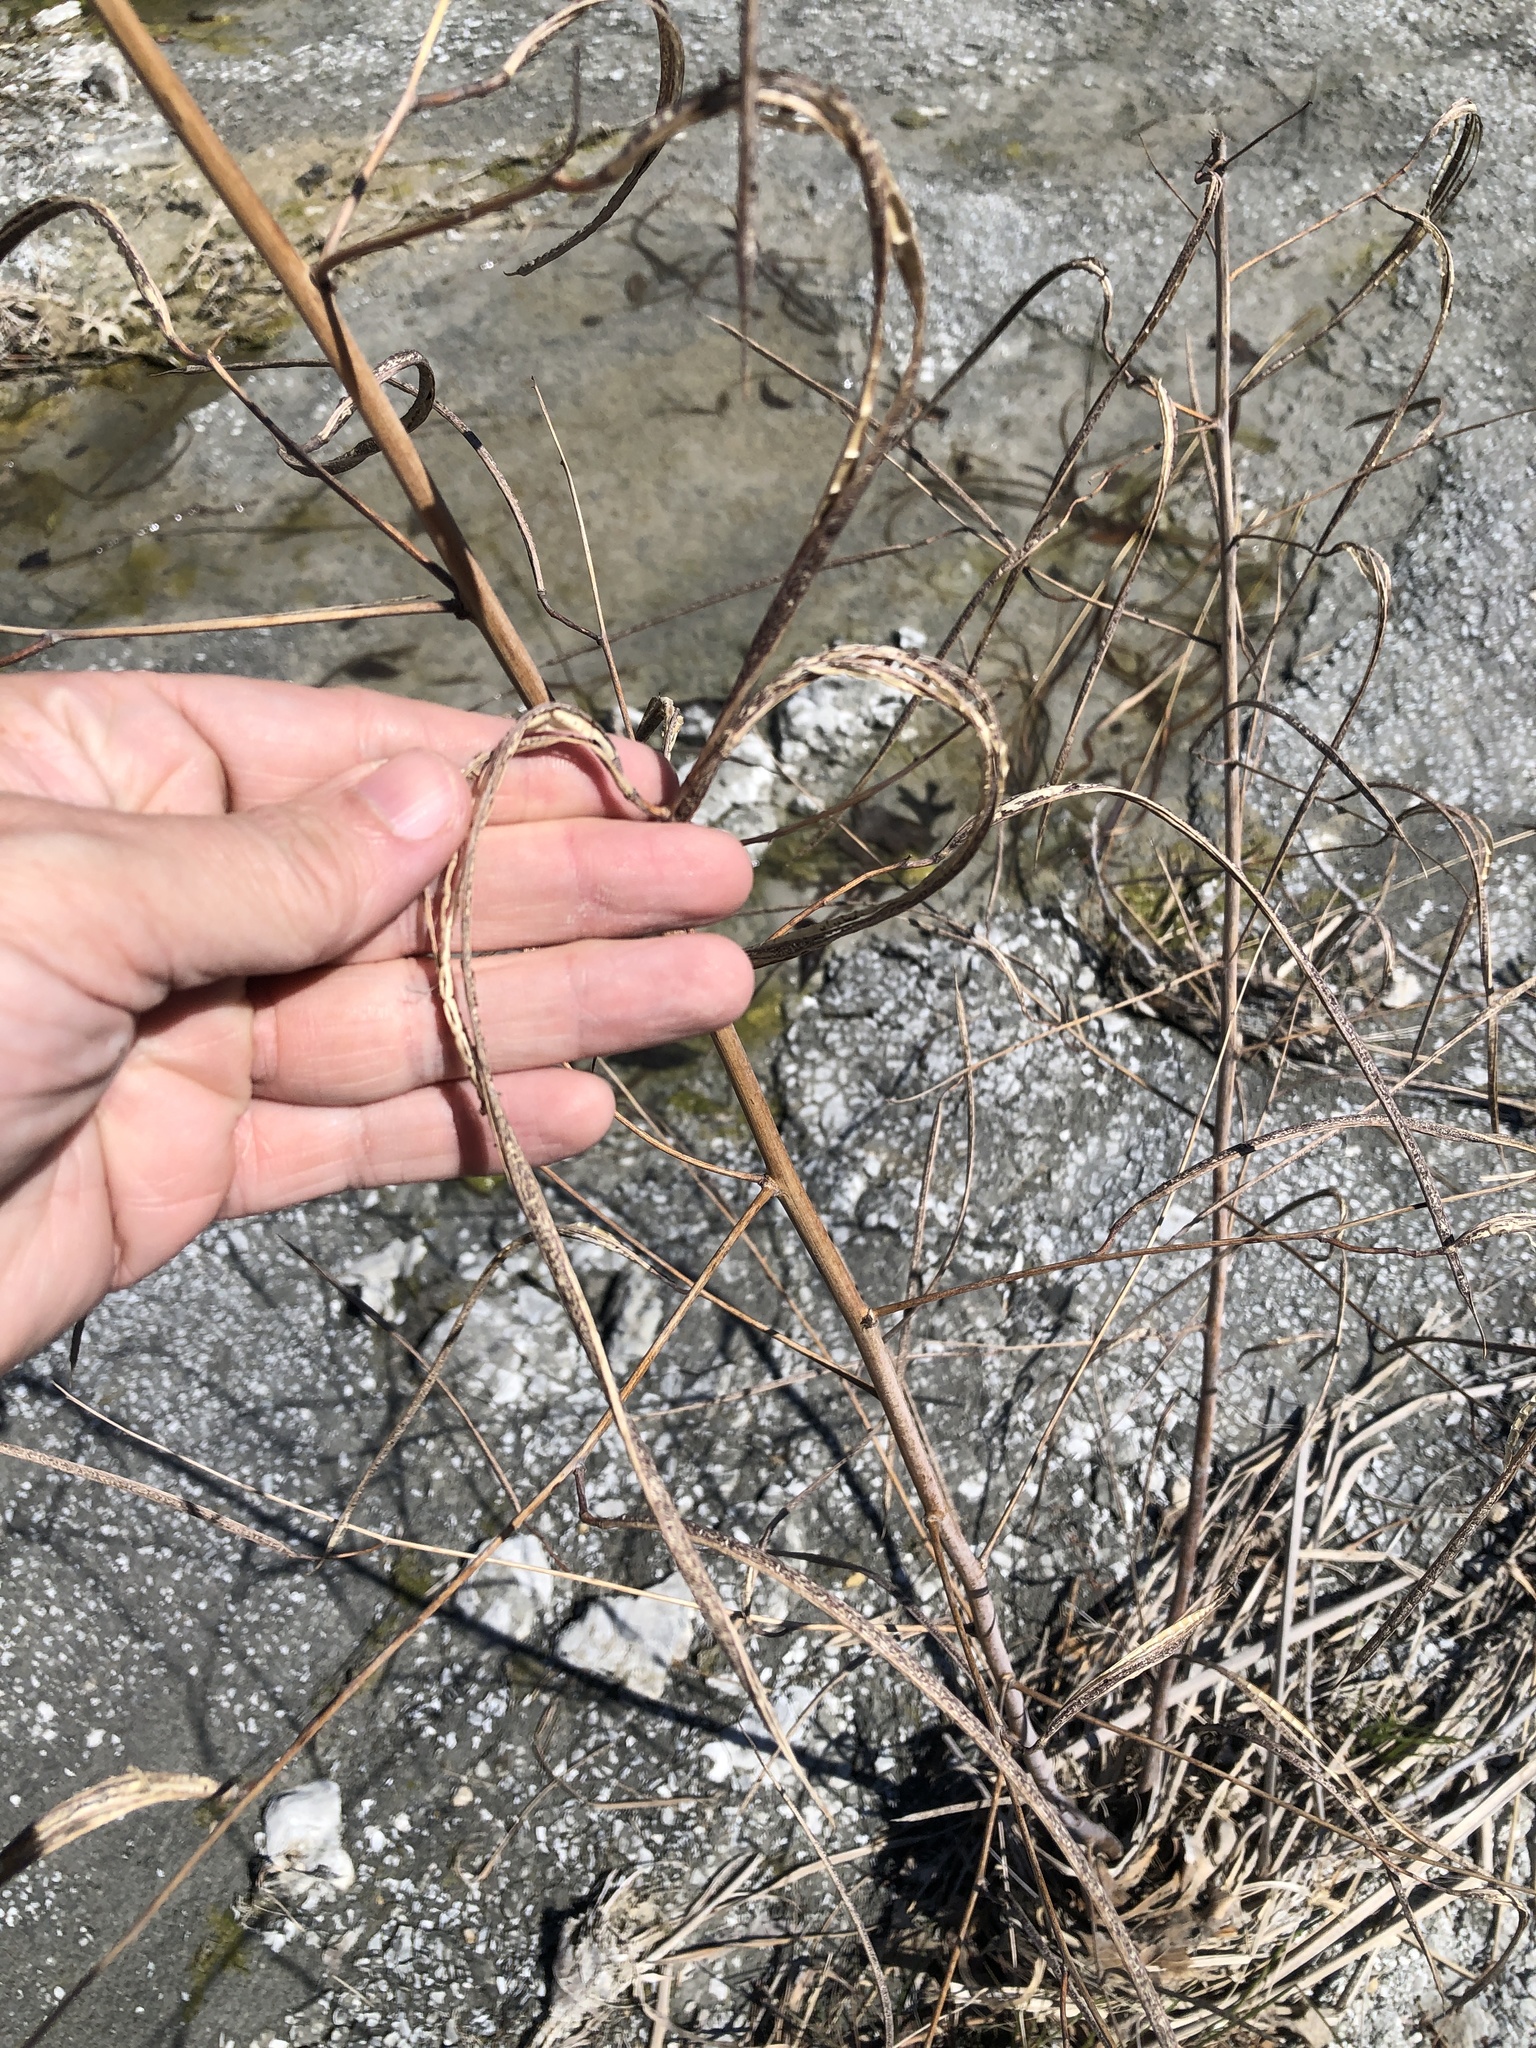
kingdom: Plantae
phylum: Tracheophyta
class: Magnoliopsida
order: Fabales
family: Fabaceae
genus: Sesbania
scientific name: Sesbania herbacea
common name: Bigpod sesbania
